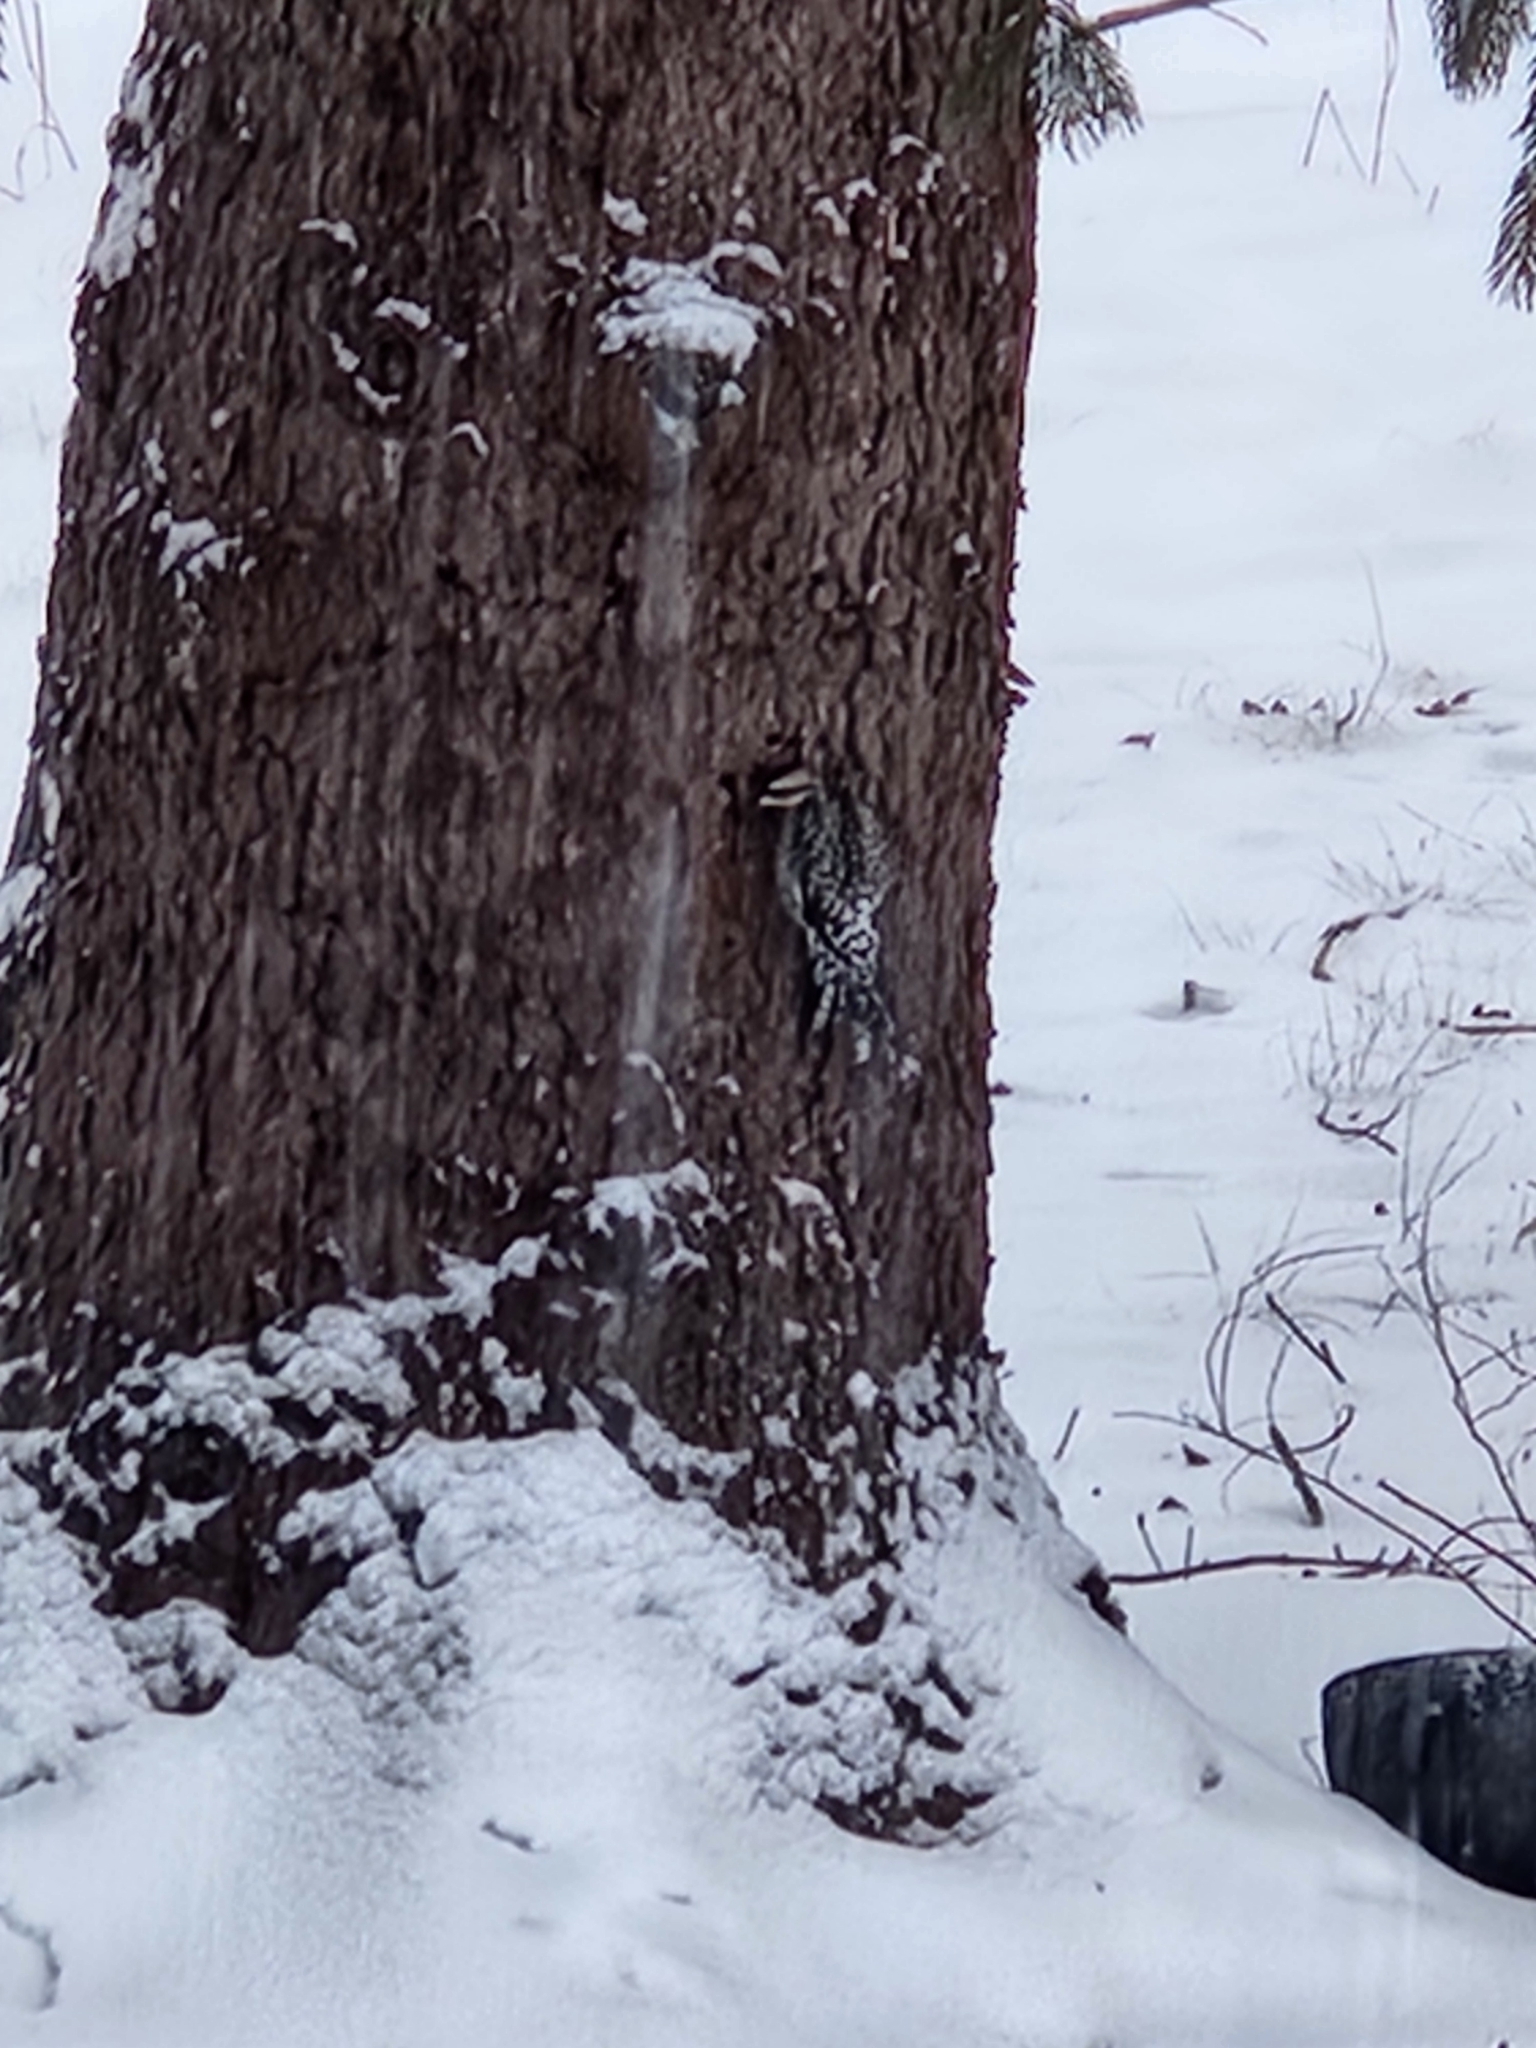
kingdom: Animalia
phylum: Chordata
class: Aves
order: Piciformes
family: Picidae
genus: Sphyrapicus
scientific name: Sphyrapicus varius
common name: Yellow-bellied sapsucker
